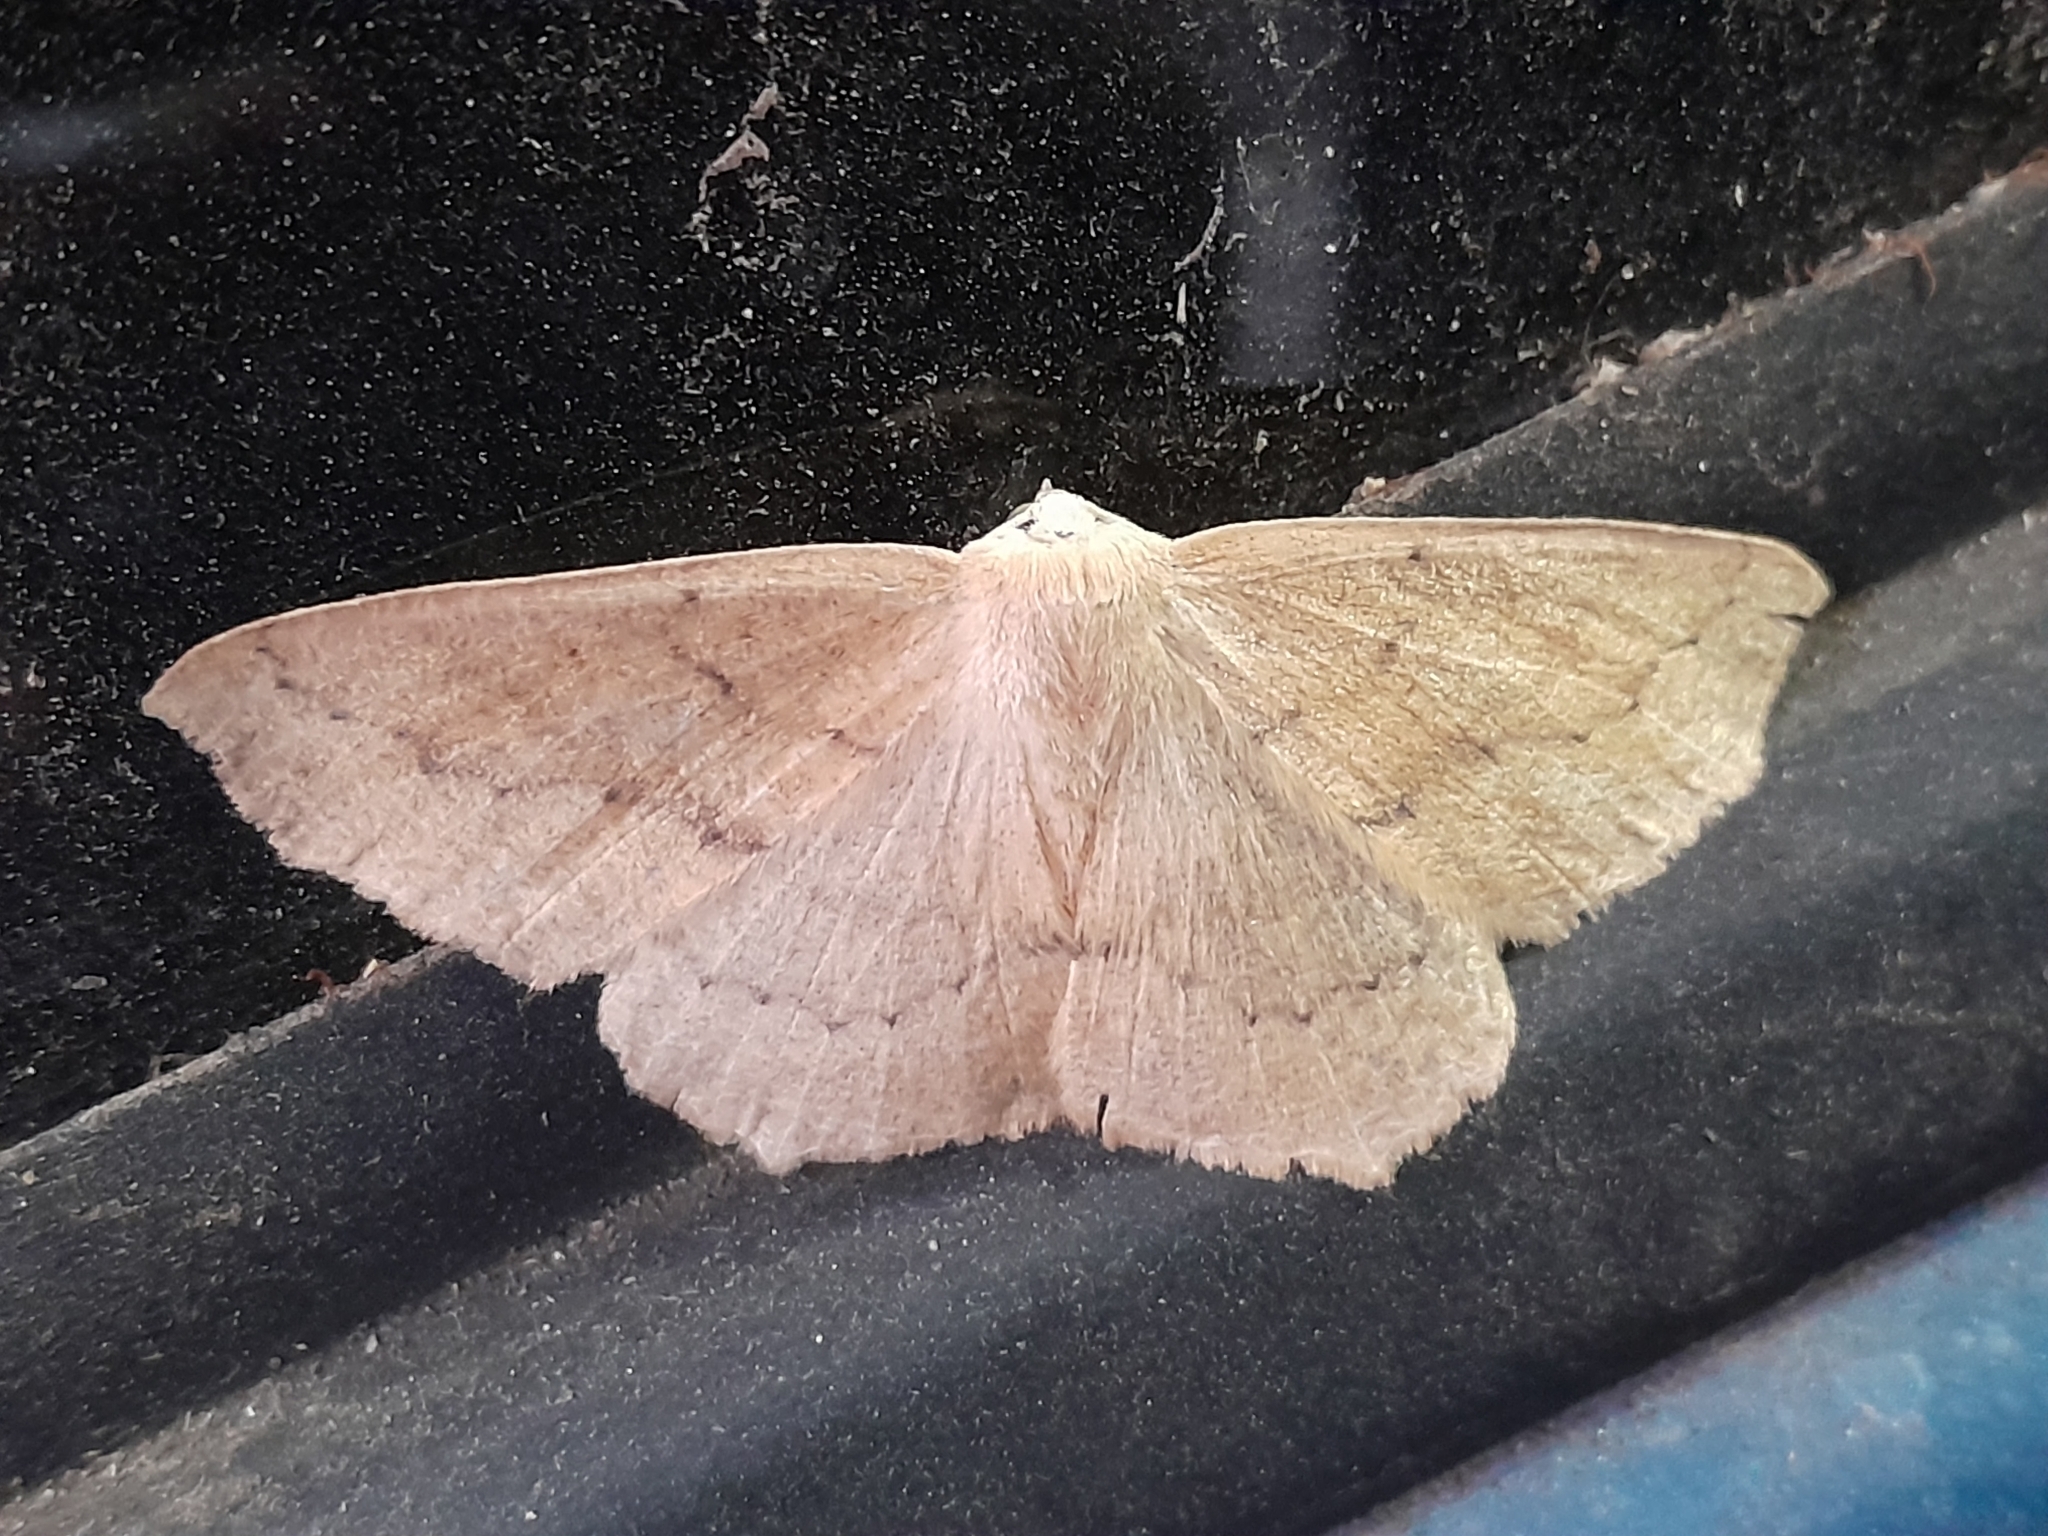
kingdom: Animalia
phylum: Arthropoda
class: Insecta
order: Lepidoptera
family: Geometridae
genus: Sabulodes
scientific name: Sabulodes aegrotata
